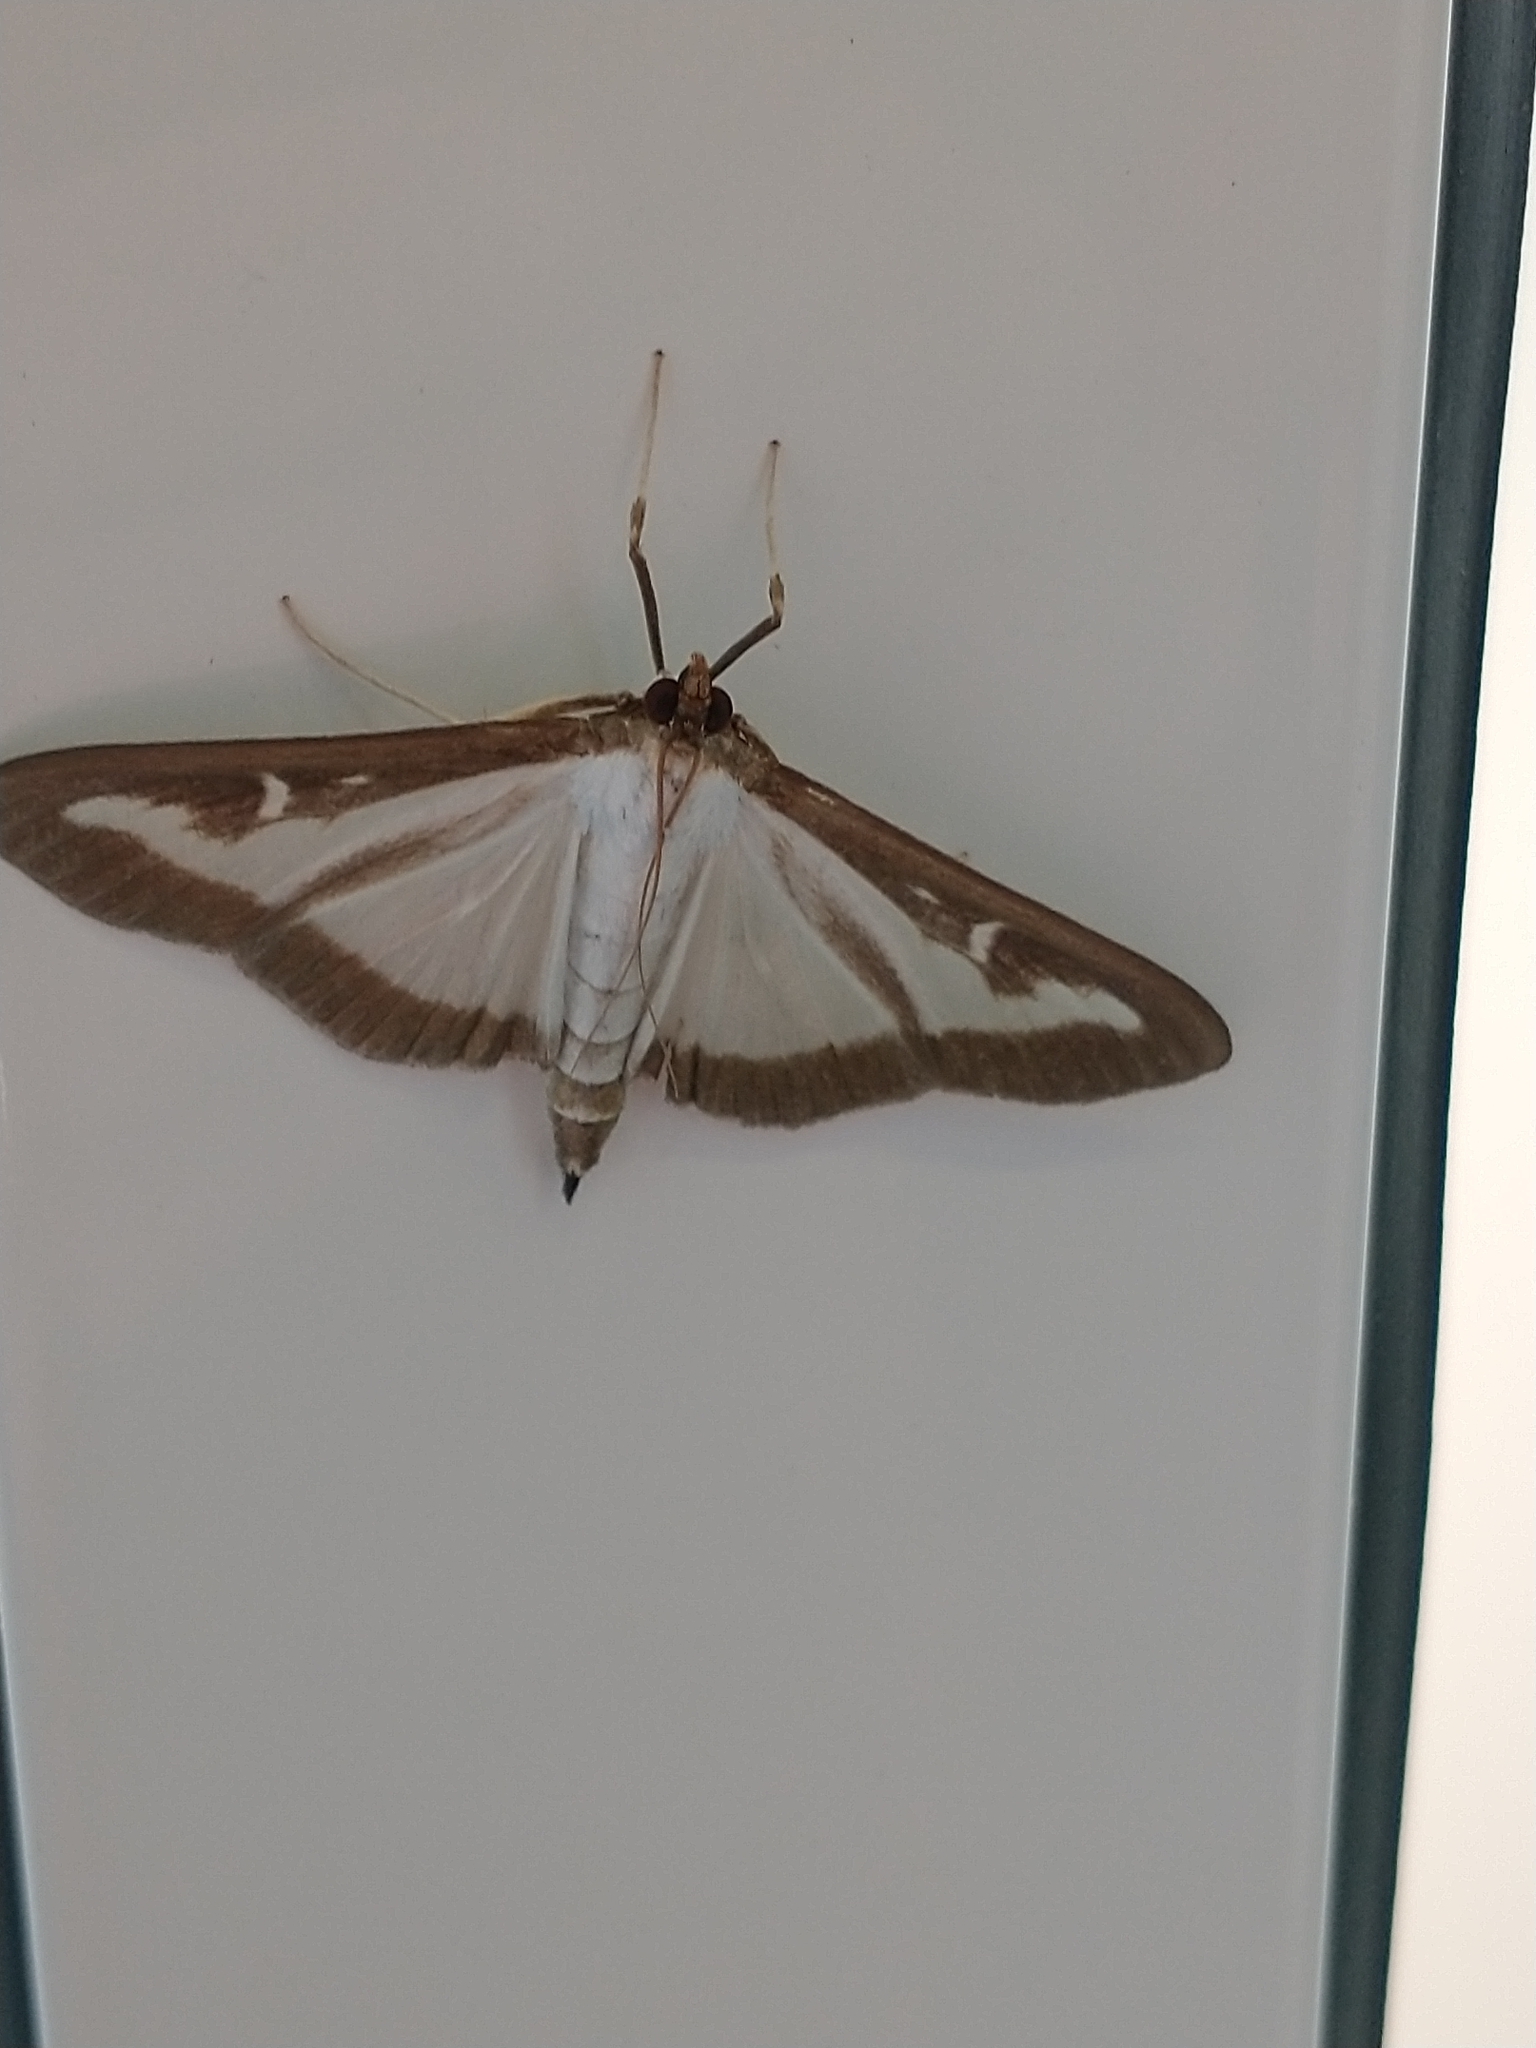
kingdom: Animalia
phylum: Arthropoda
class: Insecta
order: Lepidoptera
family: Crambidae
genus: Cydalima
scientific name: Cydalima perspectalis
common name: Box tree moth
